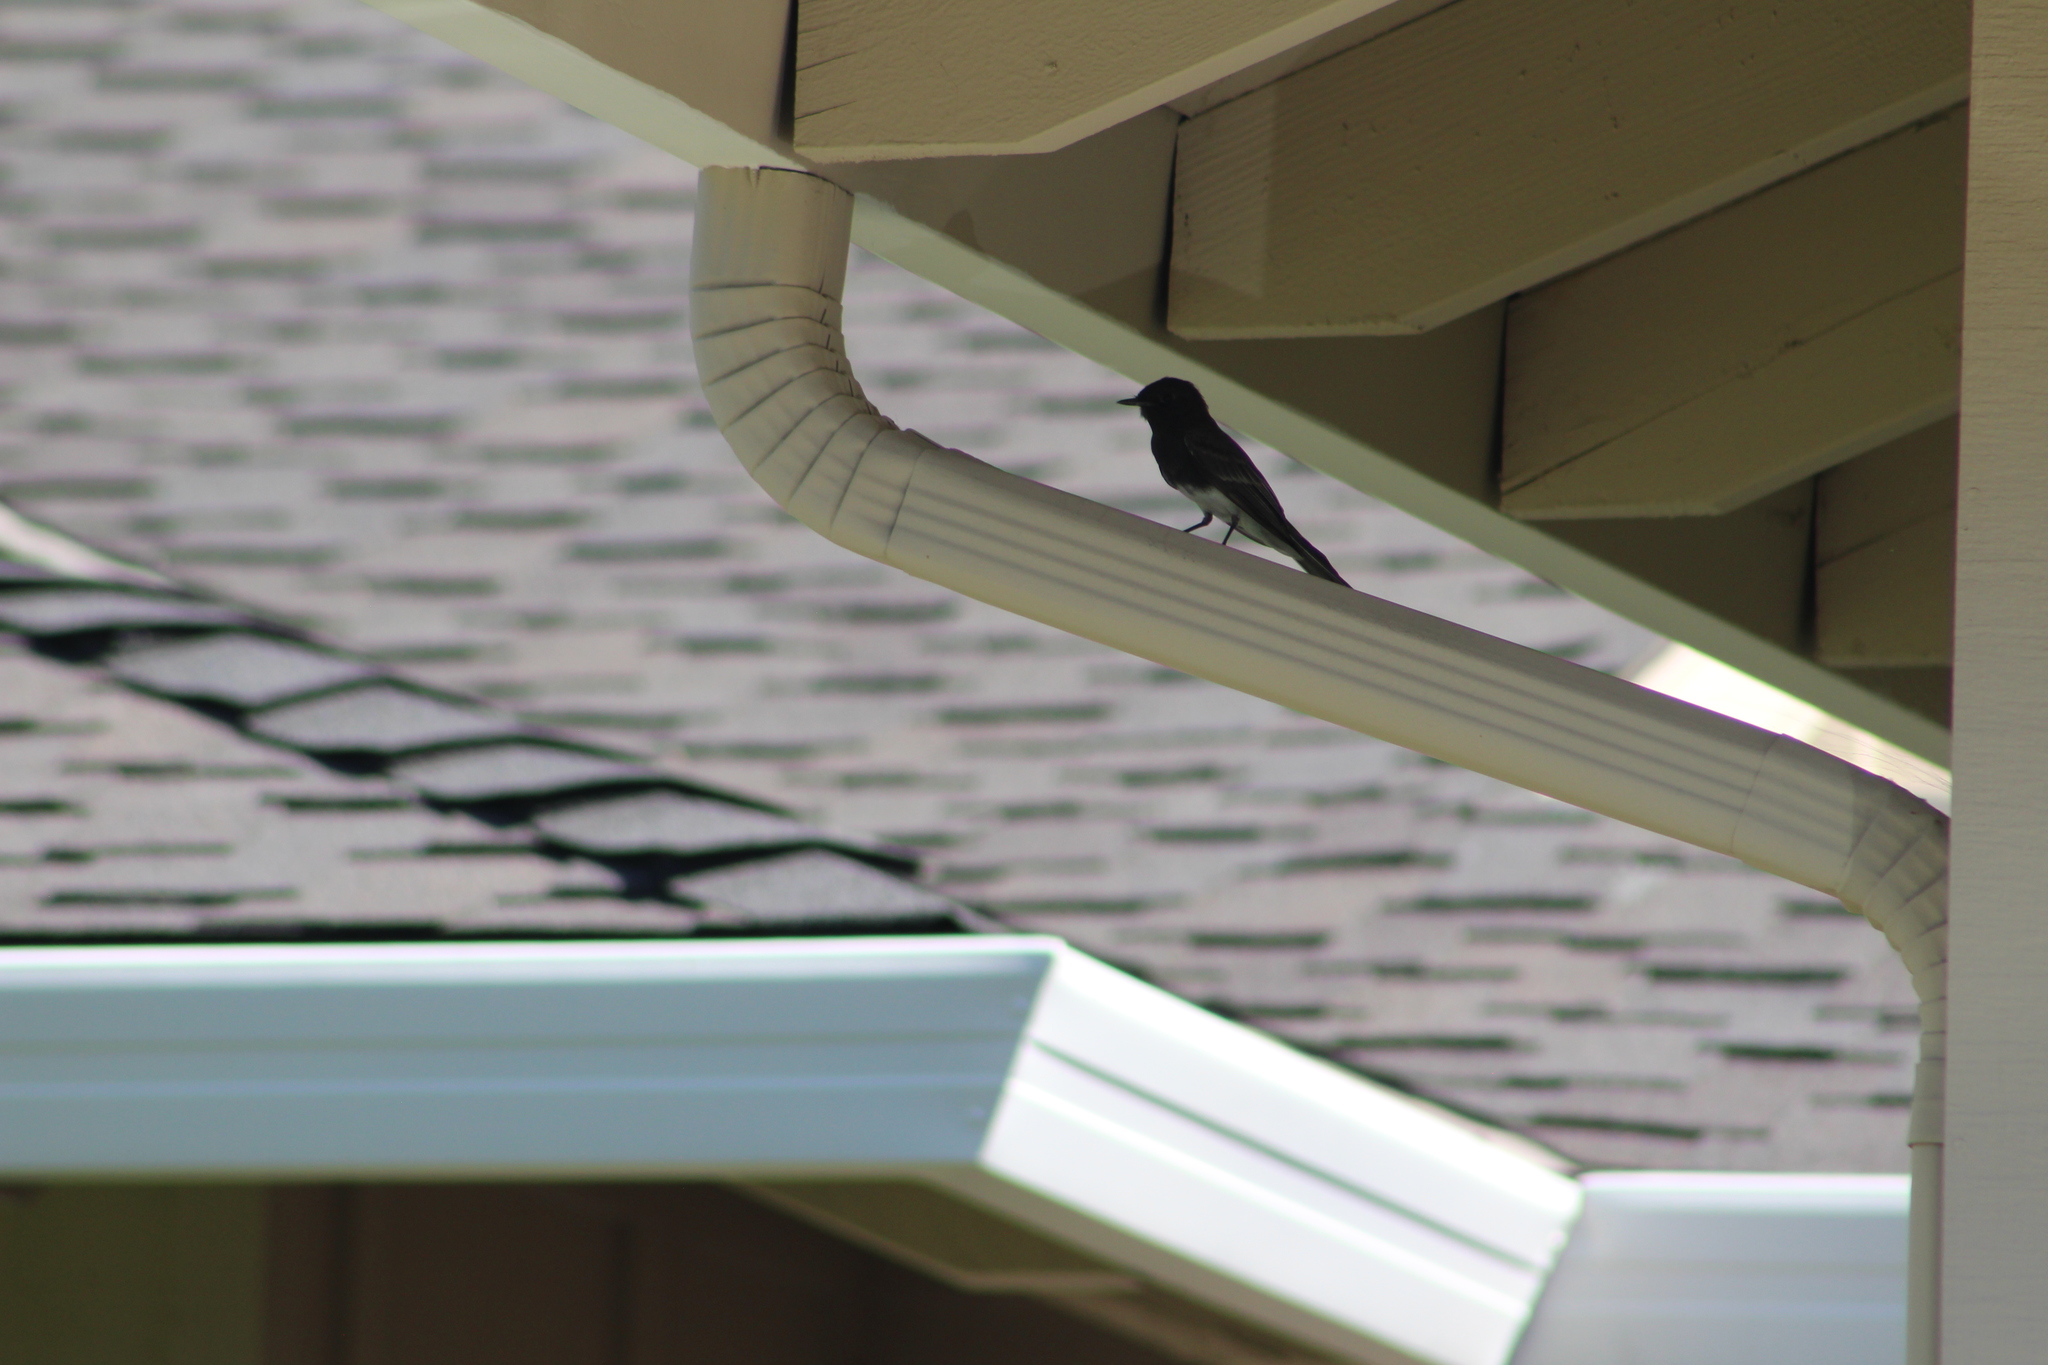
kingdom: Animalia
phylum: Chordata
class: Aves
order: Passeriformes
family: Tyrannidae
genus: Sayornis
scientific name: Sayornis nigricans
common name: Black phoebe
